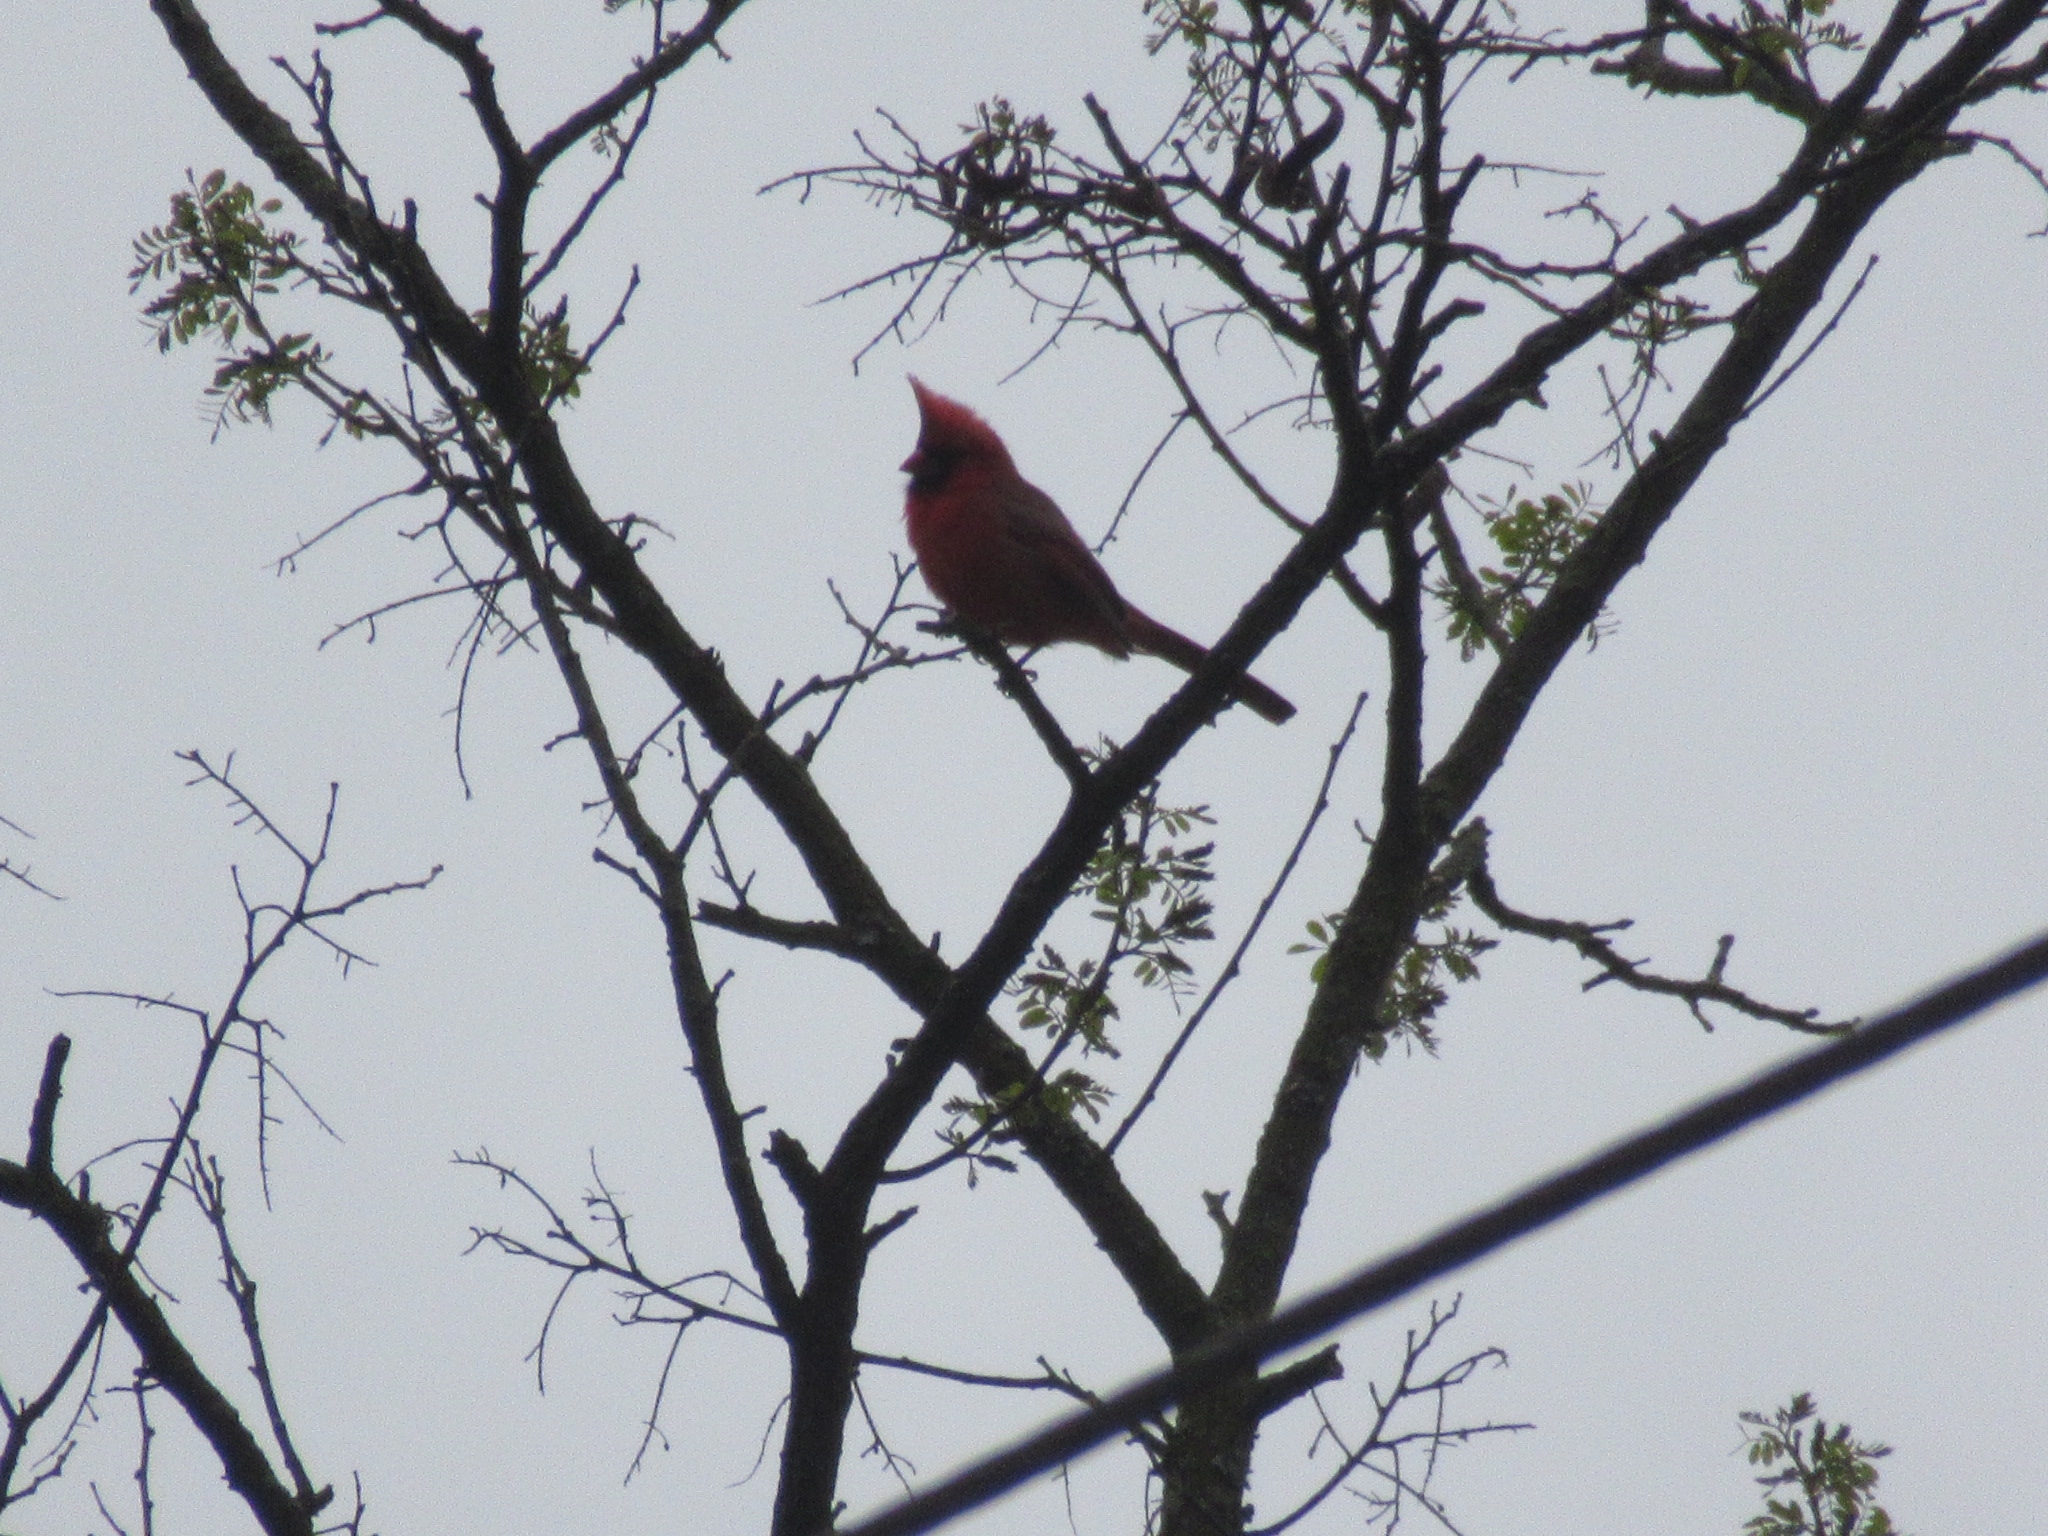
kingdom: Animalia
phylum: Chordata
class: Aves
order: Passeriformes
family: Cardinalidae
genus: Cardinalis
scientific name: Cardinalis cardinalis
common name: Northern cardinal
